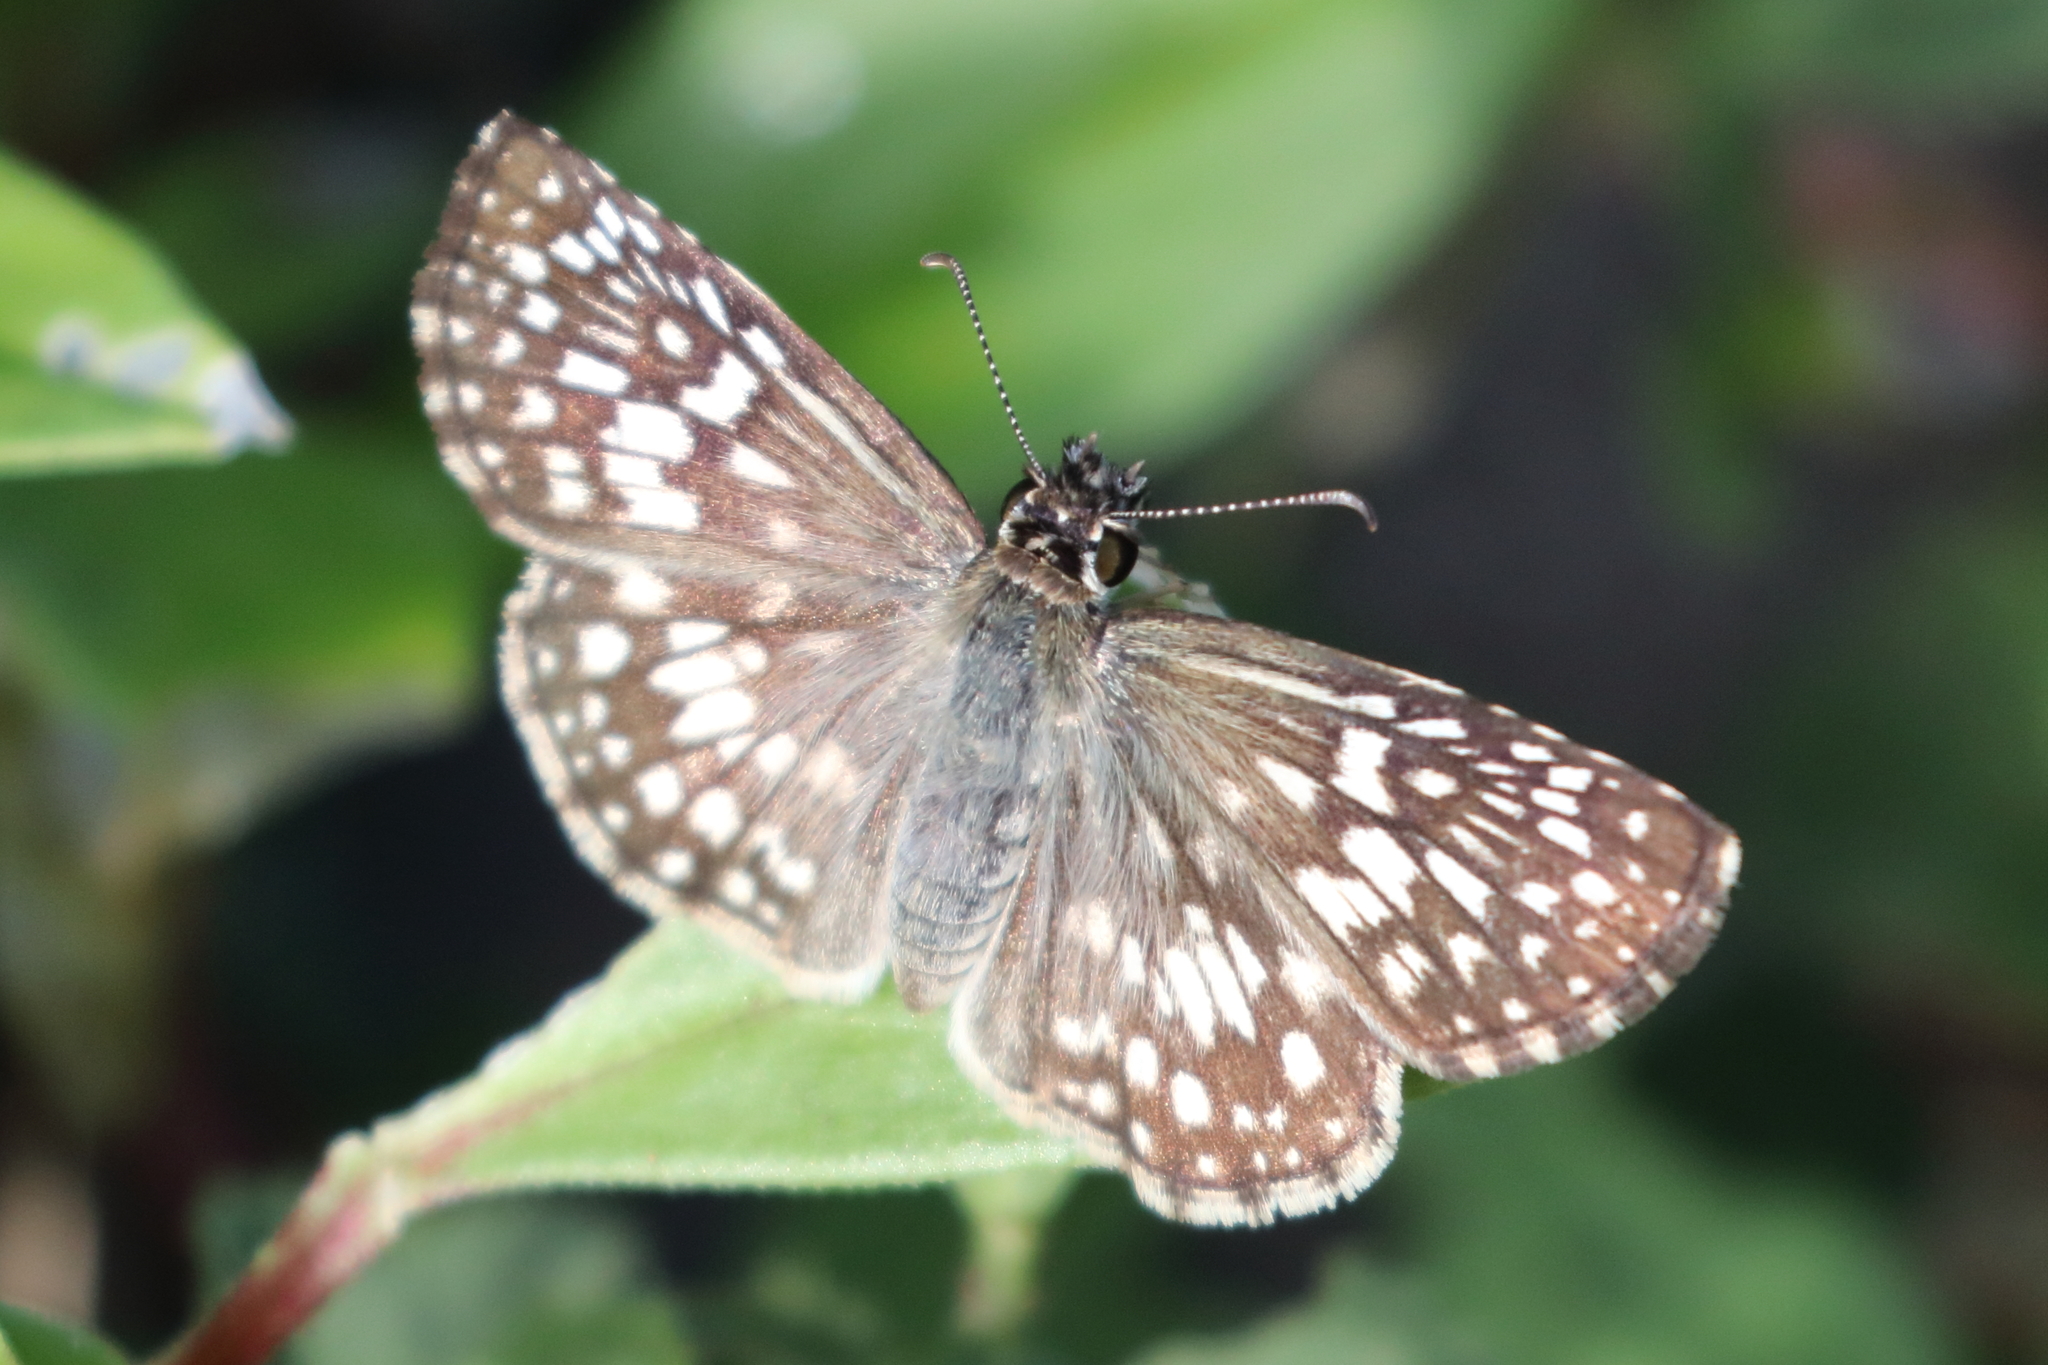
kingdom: Animalia
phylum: Arthropoda
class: Insecta
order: Lepidoptera
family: Hesperiidae
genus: Pyrgus
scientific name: Pyrgus oileus
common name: Tropical checkered-skipper
